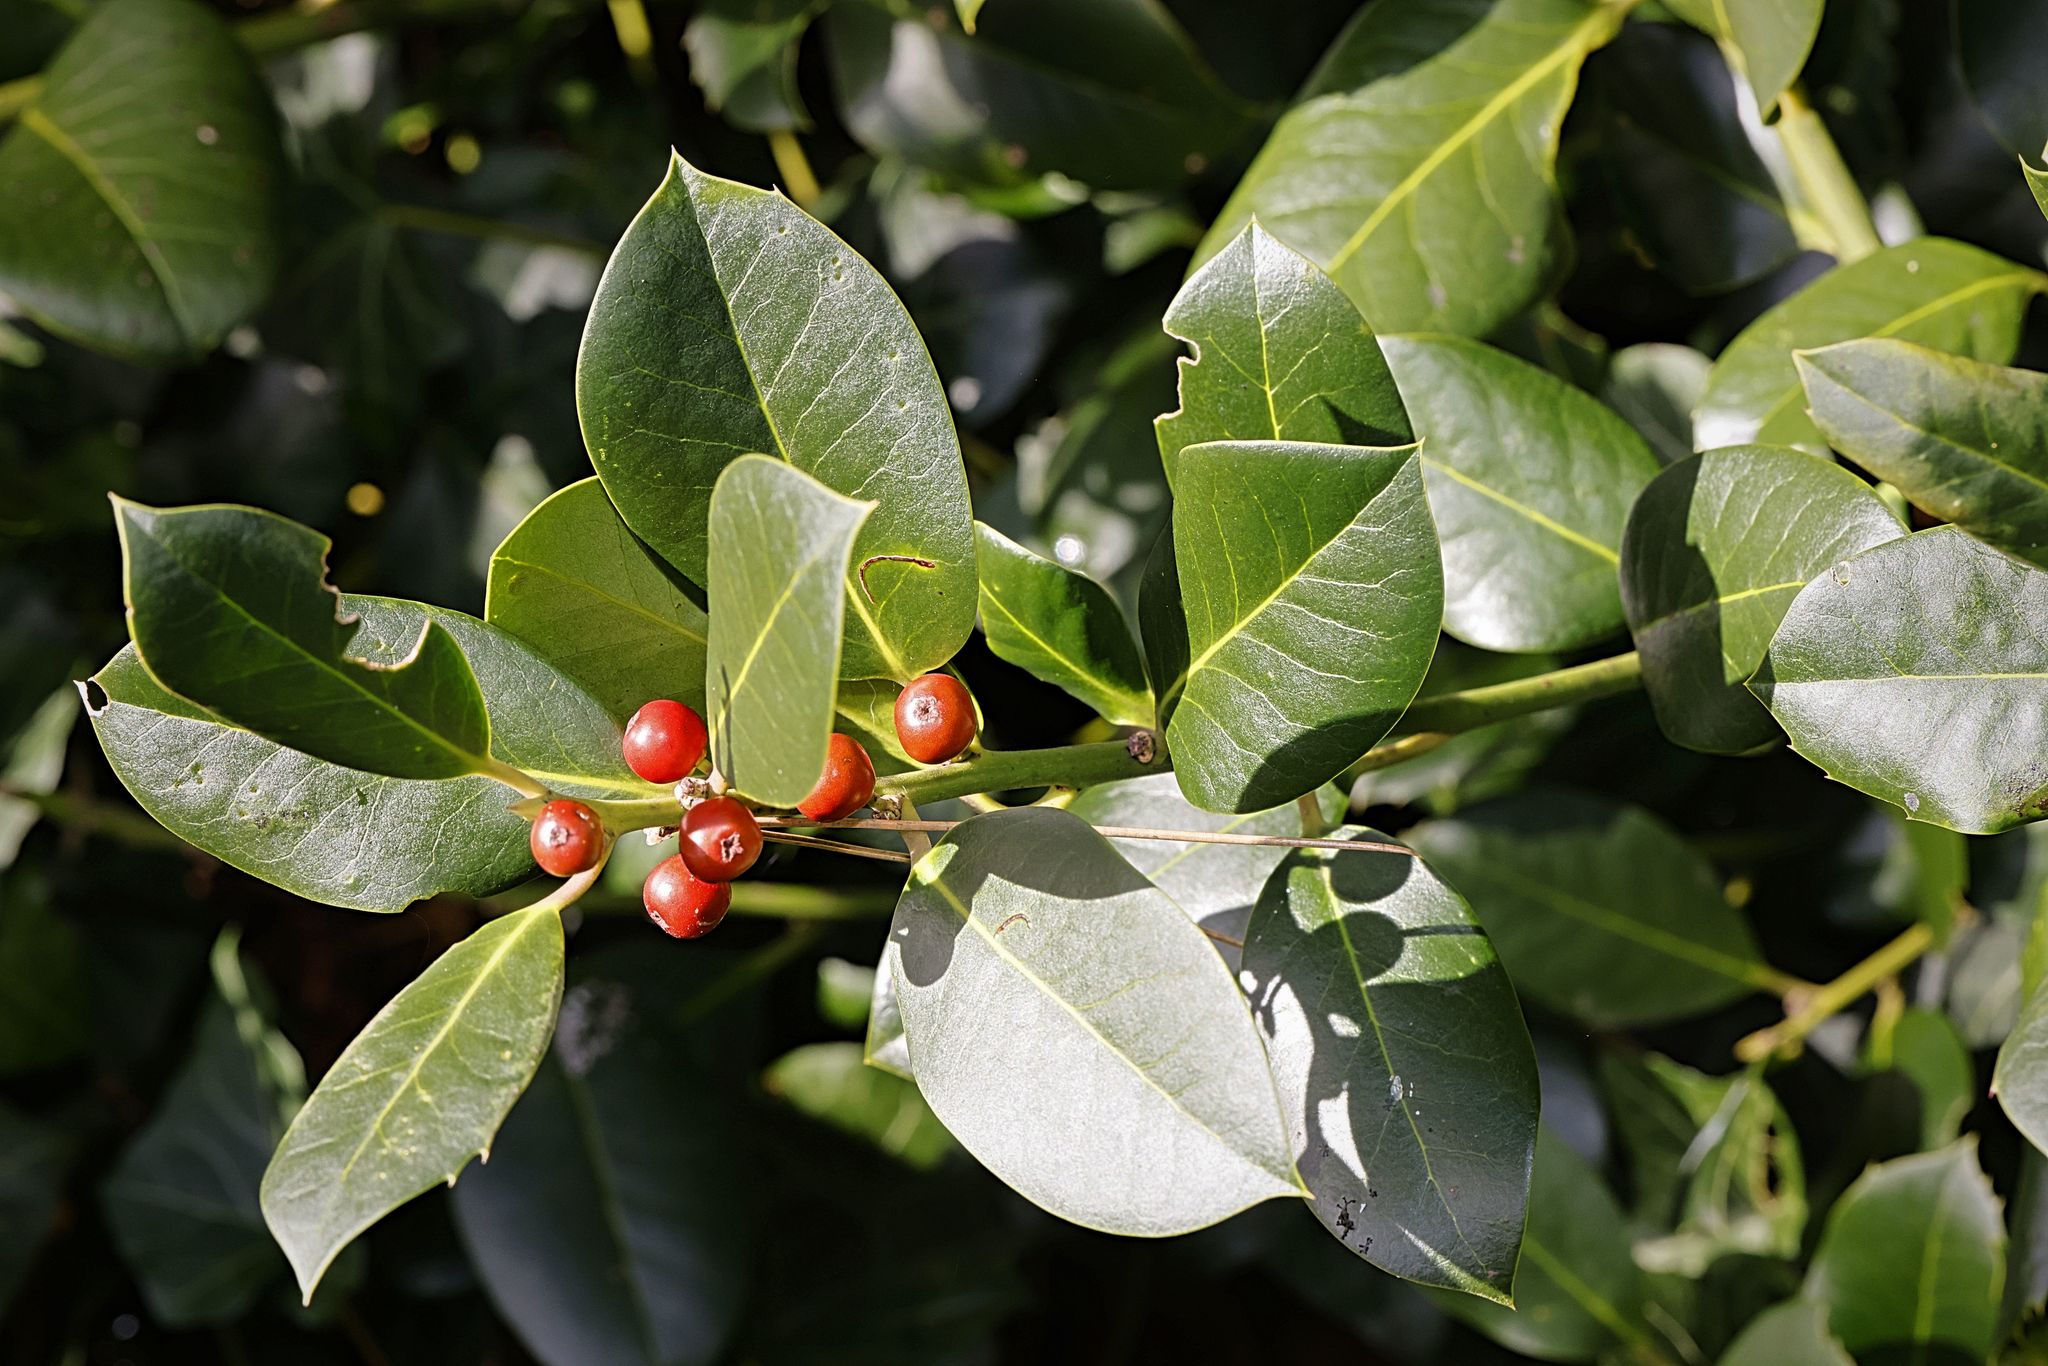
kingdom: Plantae
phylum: Tracheophyta
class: Magnoliopsida
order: Aquifoliales
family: Aquifoliaceae
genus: Ilex
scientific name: Ilex aquifolium
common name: English holly
